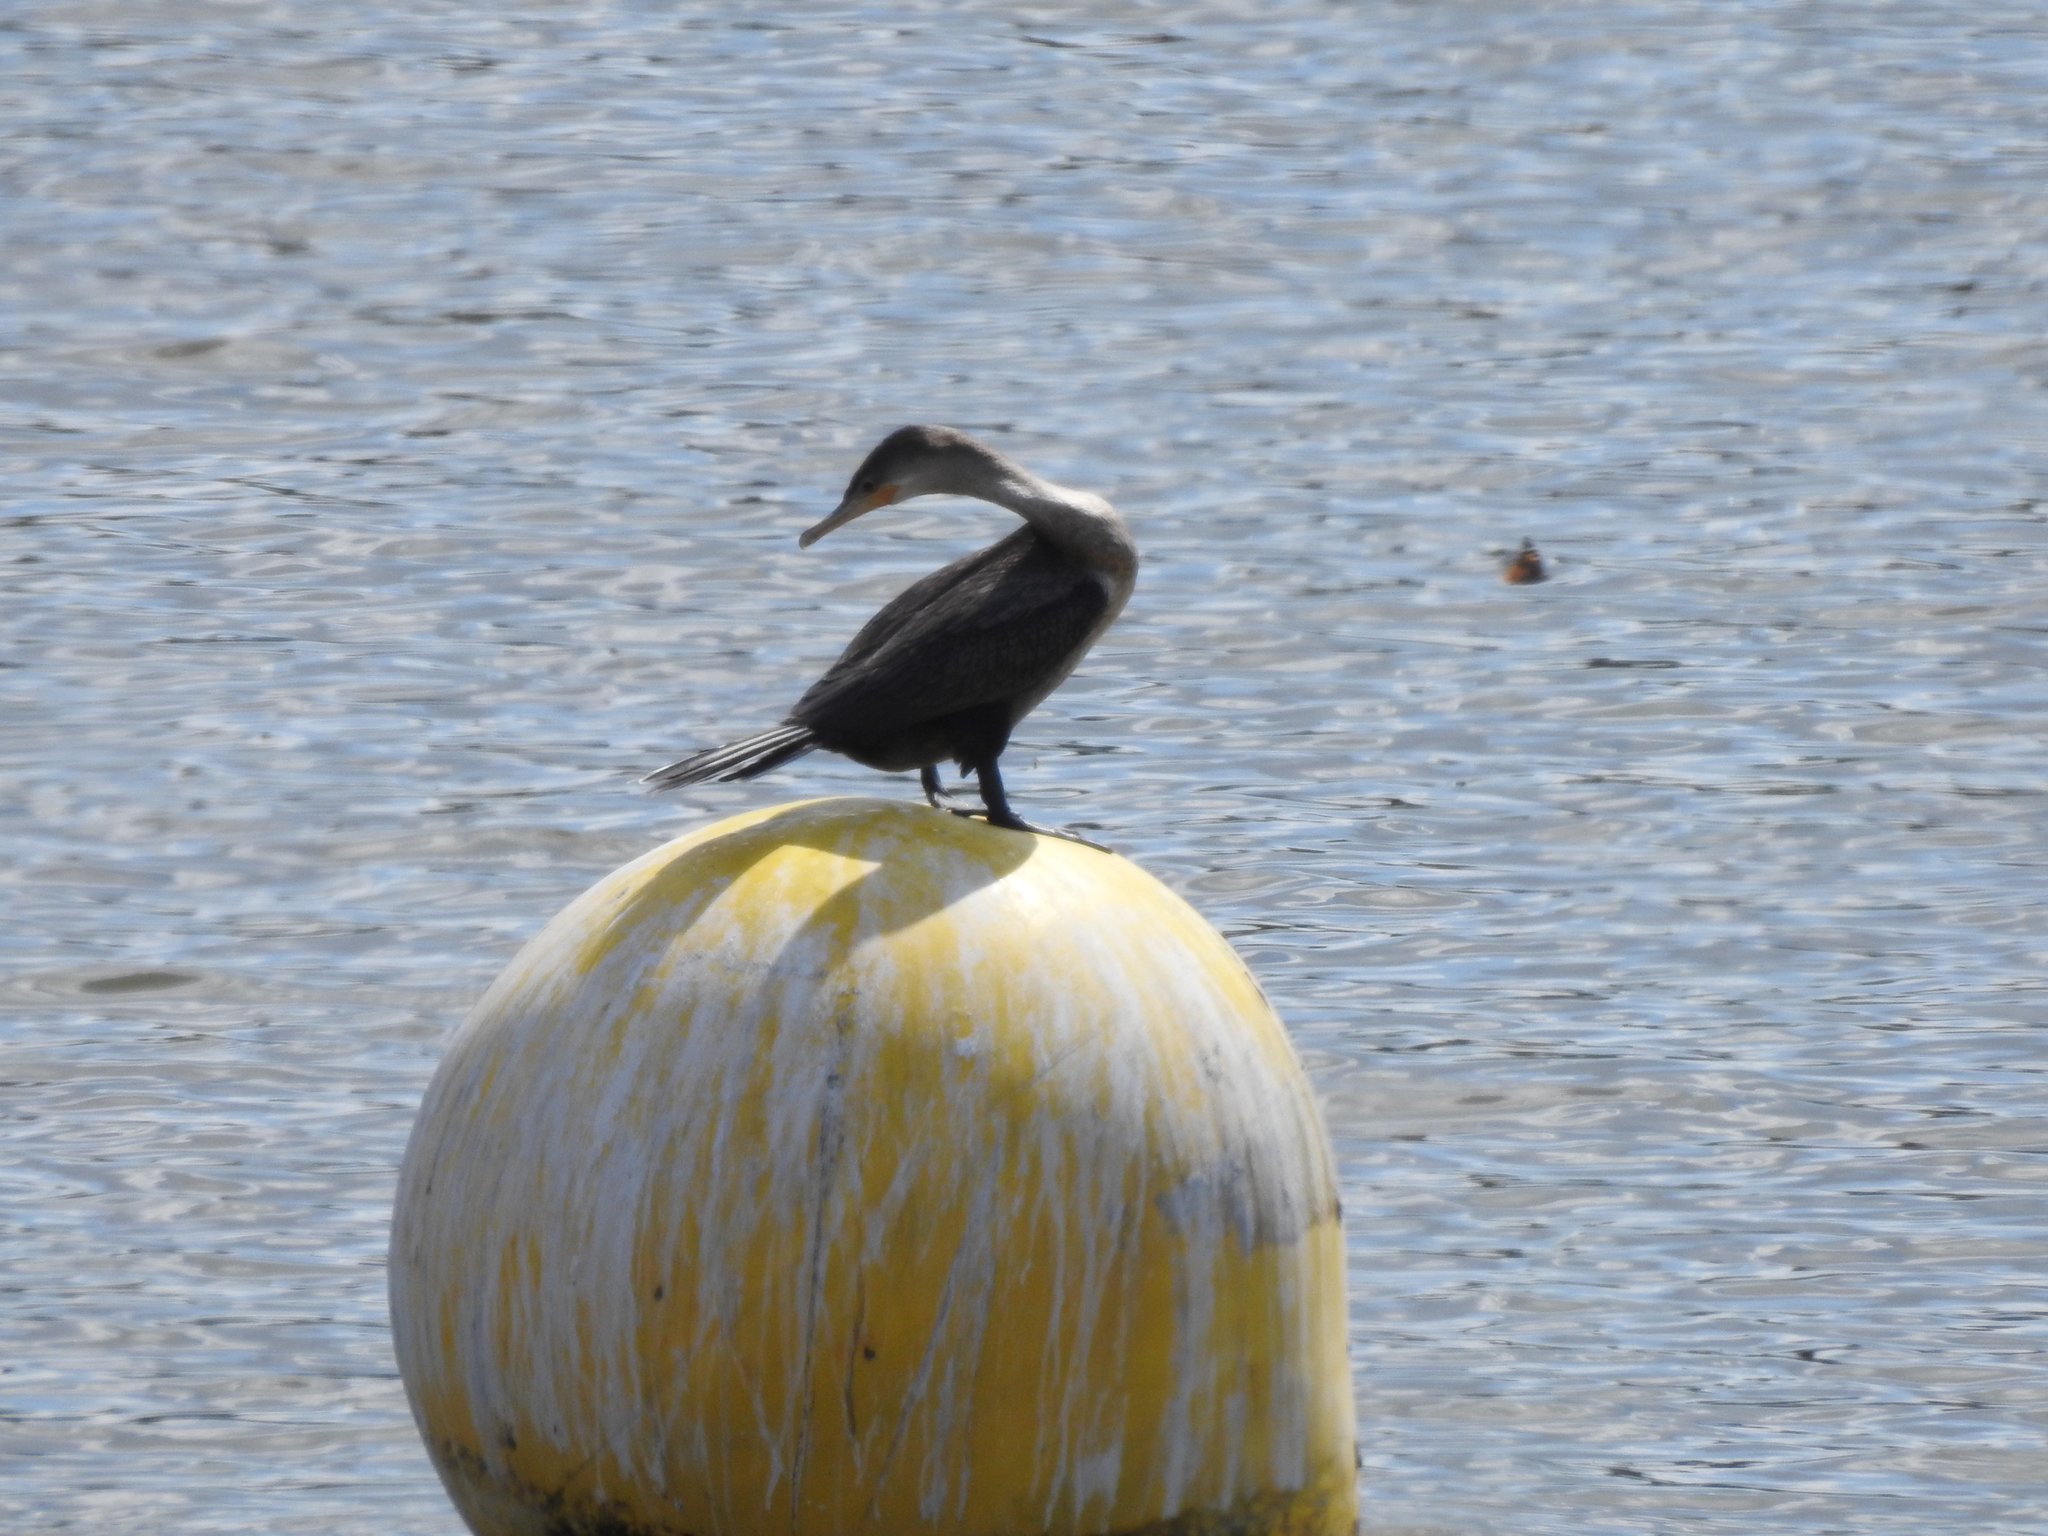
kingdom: Animalia
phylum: Chordata
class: Aves
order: Suliformes
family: Phalacrocoracidae
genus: Phalacrocorax
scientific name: Phalacrocorax brasilianus
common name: Neotropic cormorant
